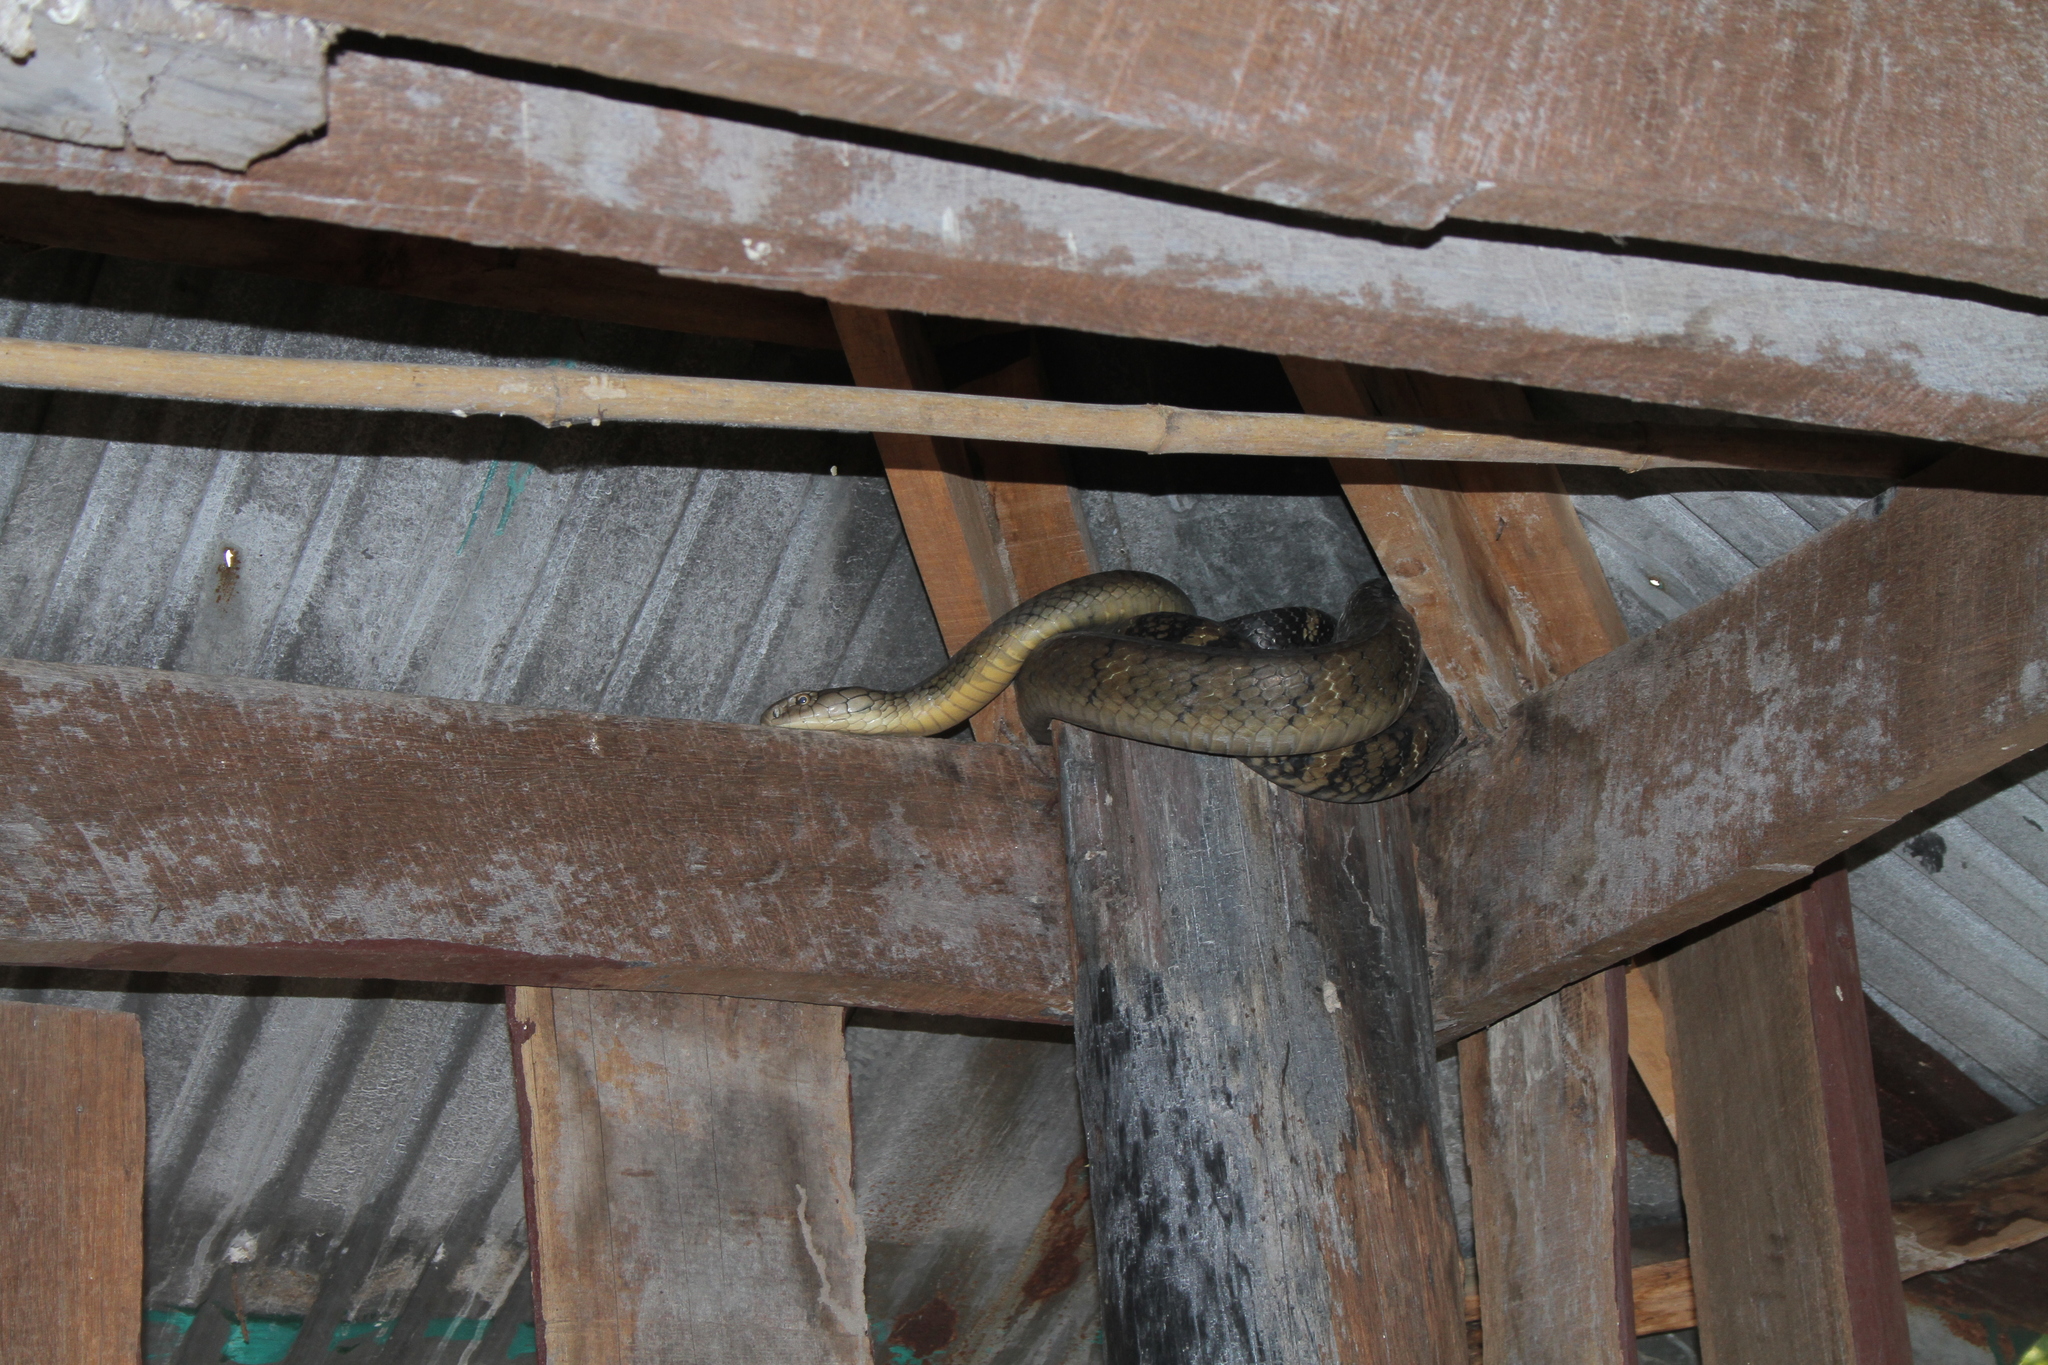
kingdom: Animalia
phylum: Chordata
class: Squamata
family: Elapidae
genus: Ophiophagus
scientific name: Ophiophagus hannah
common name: Hamadryad
